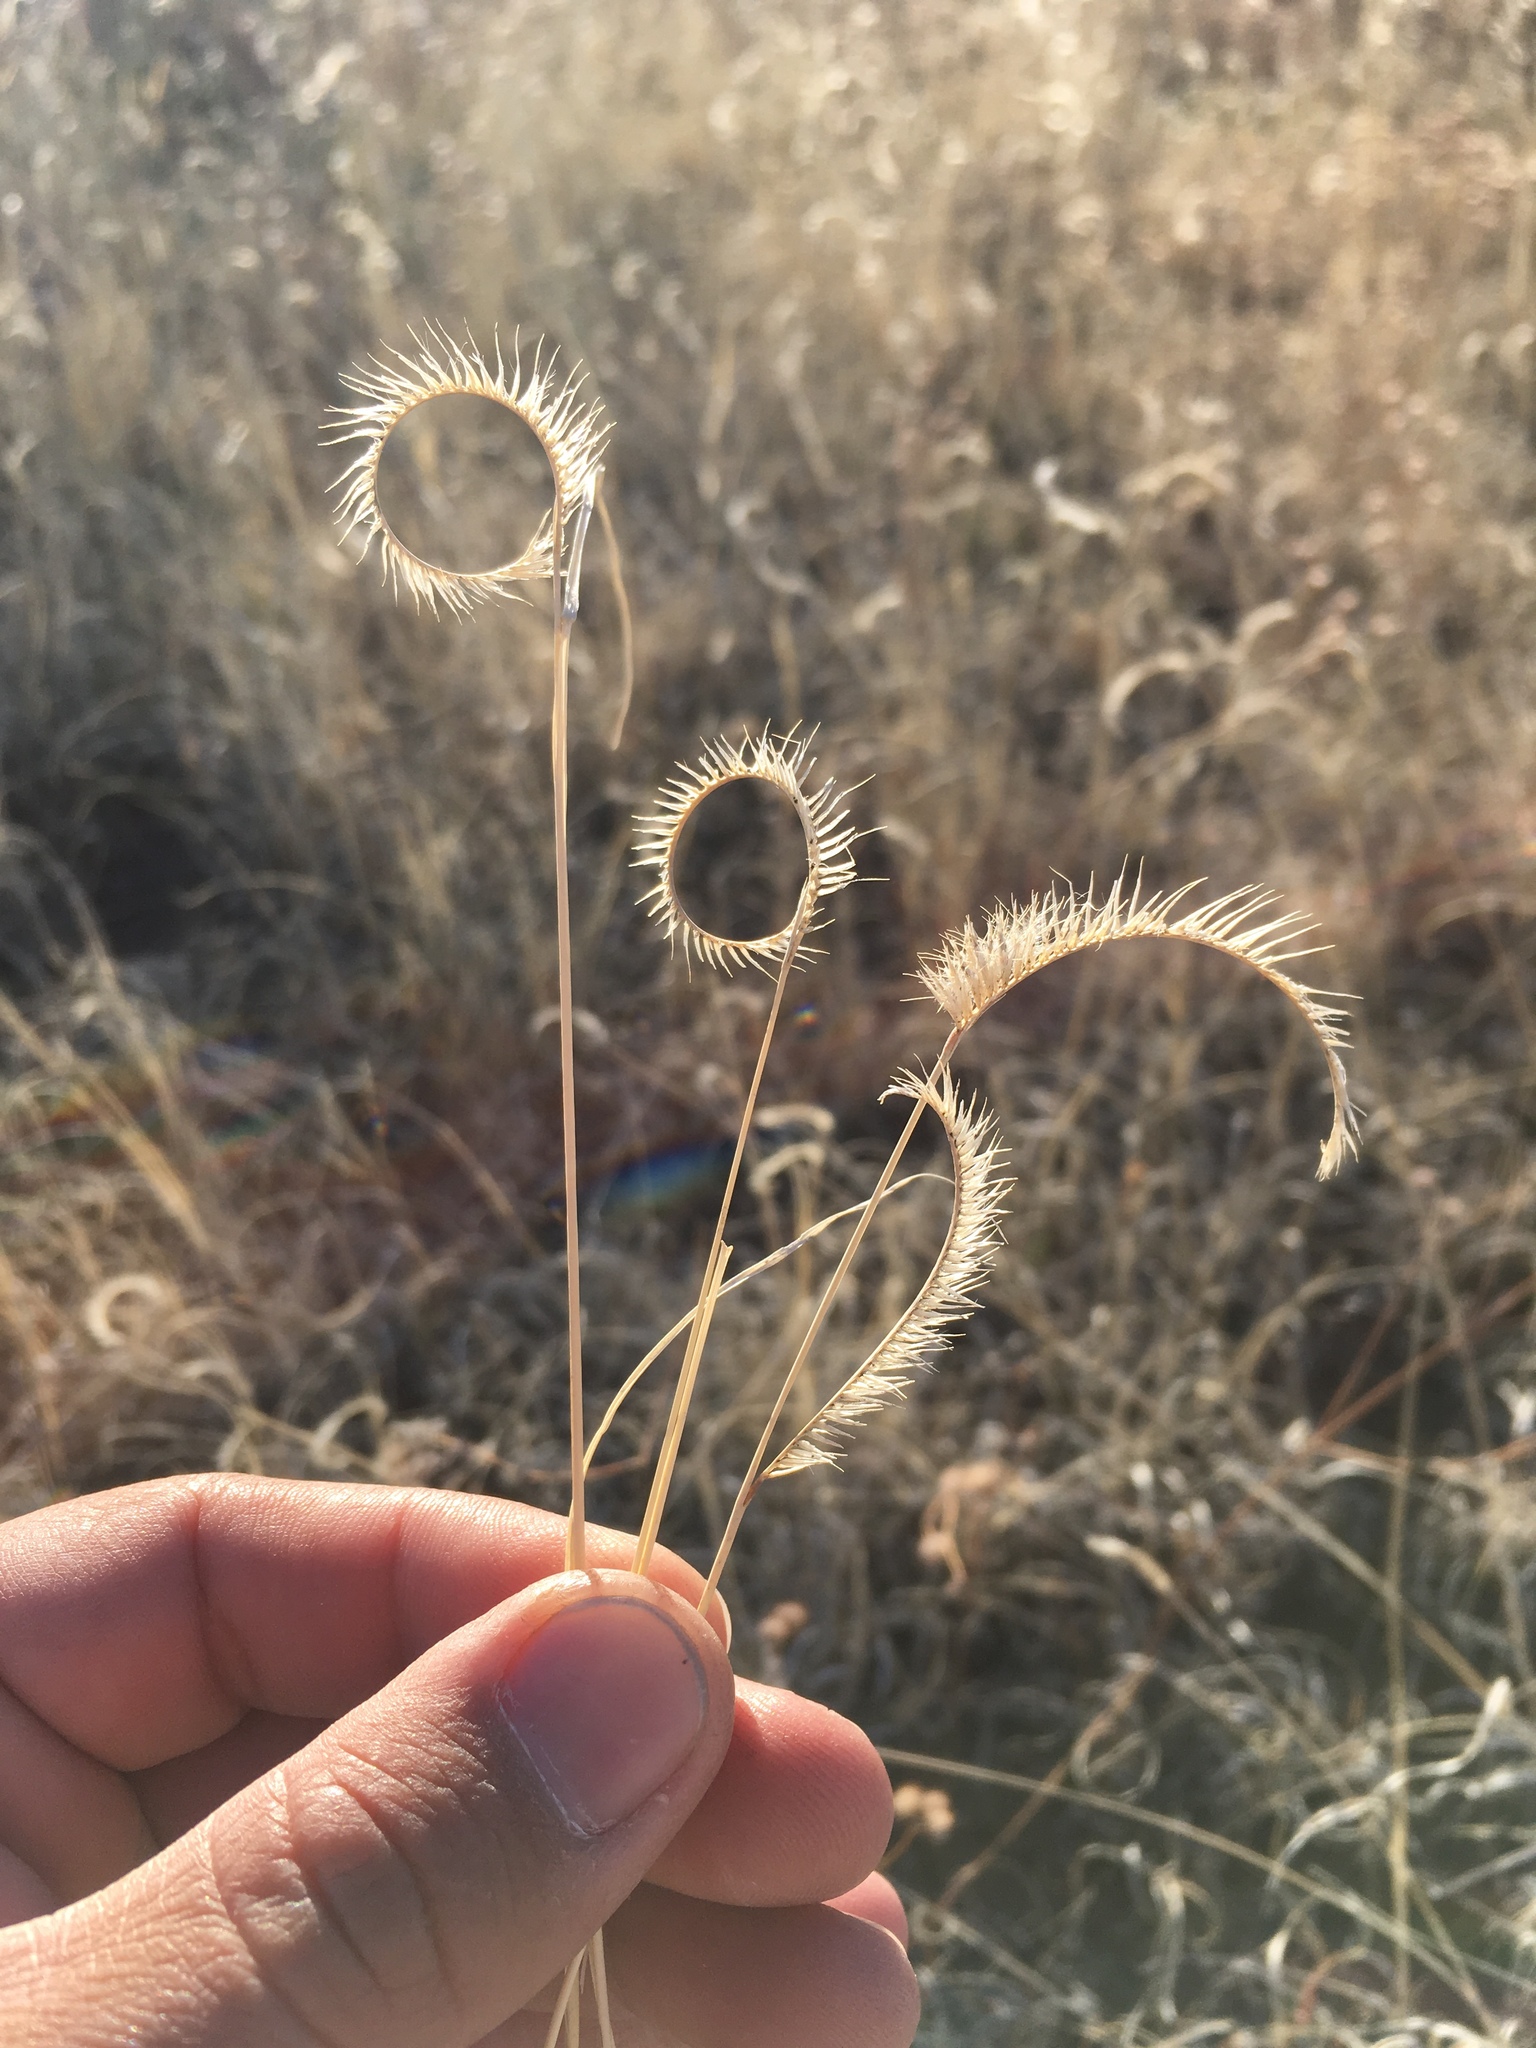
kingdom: Plantae
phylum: Tracheophyta
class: Liliopsida
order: Poales
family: Poaceae
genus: Bouteloua
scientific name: Bouteloua gracilis
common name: Blue grama
